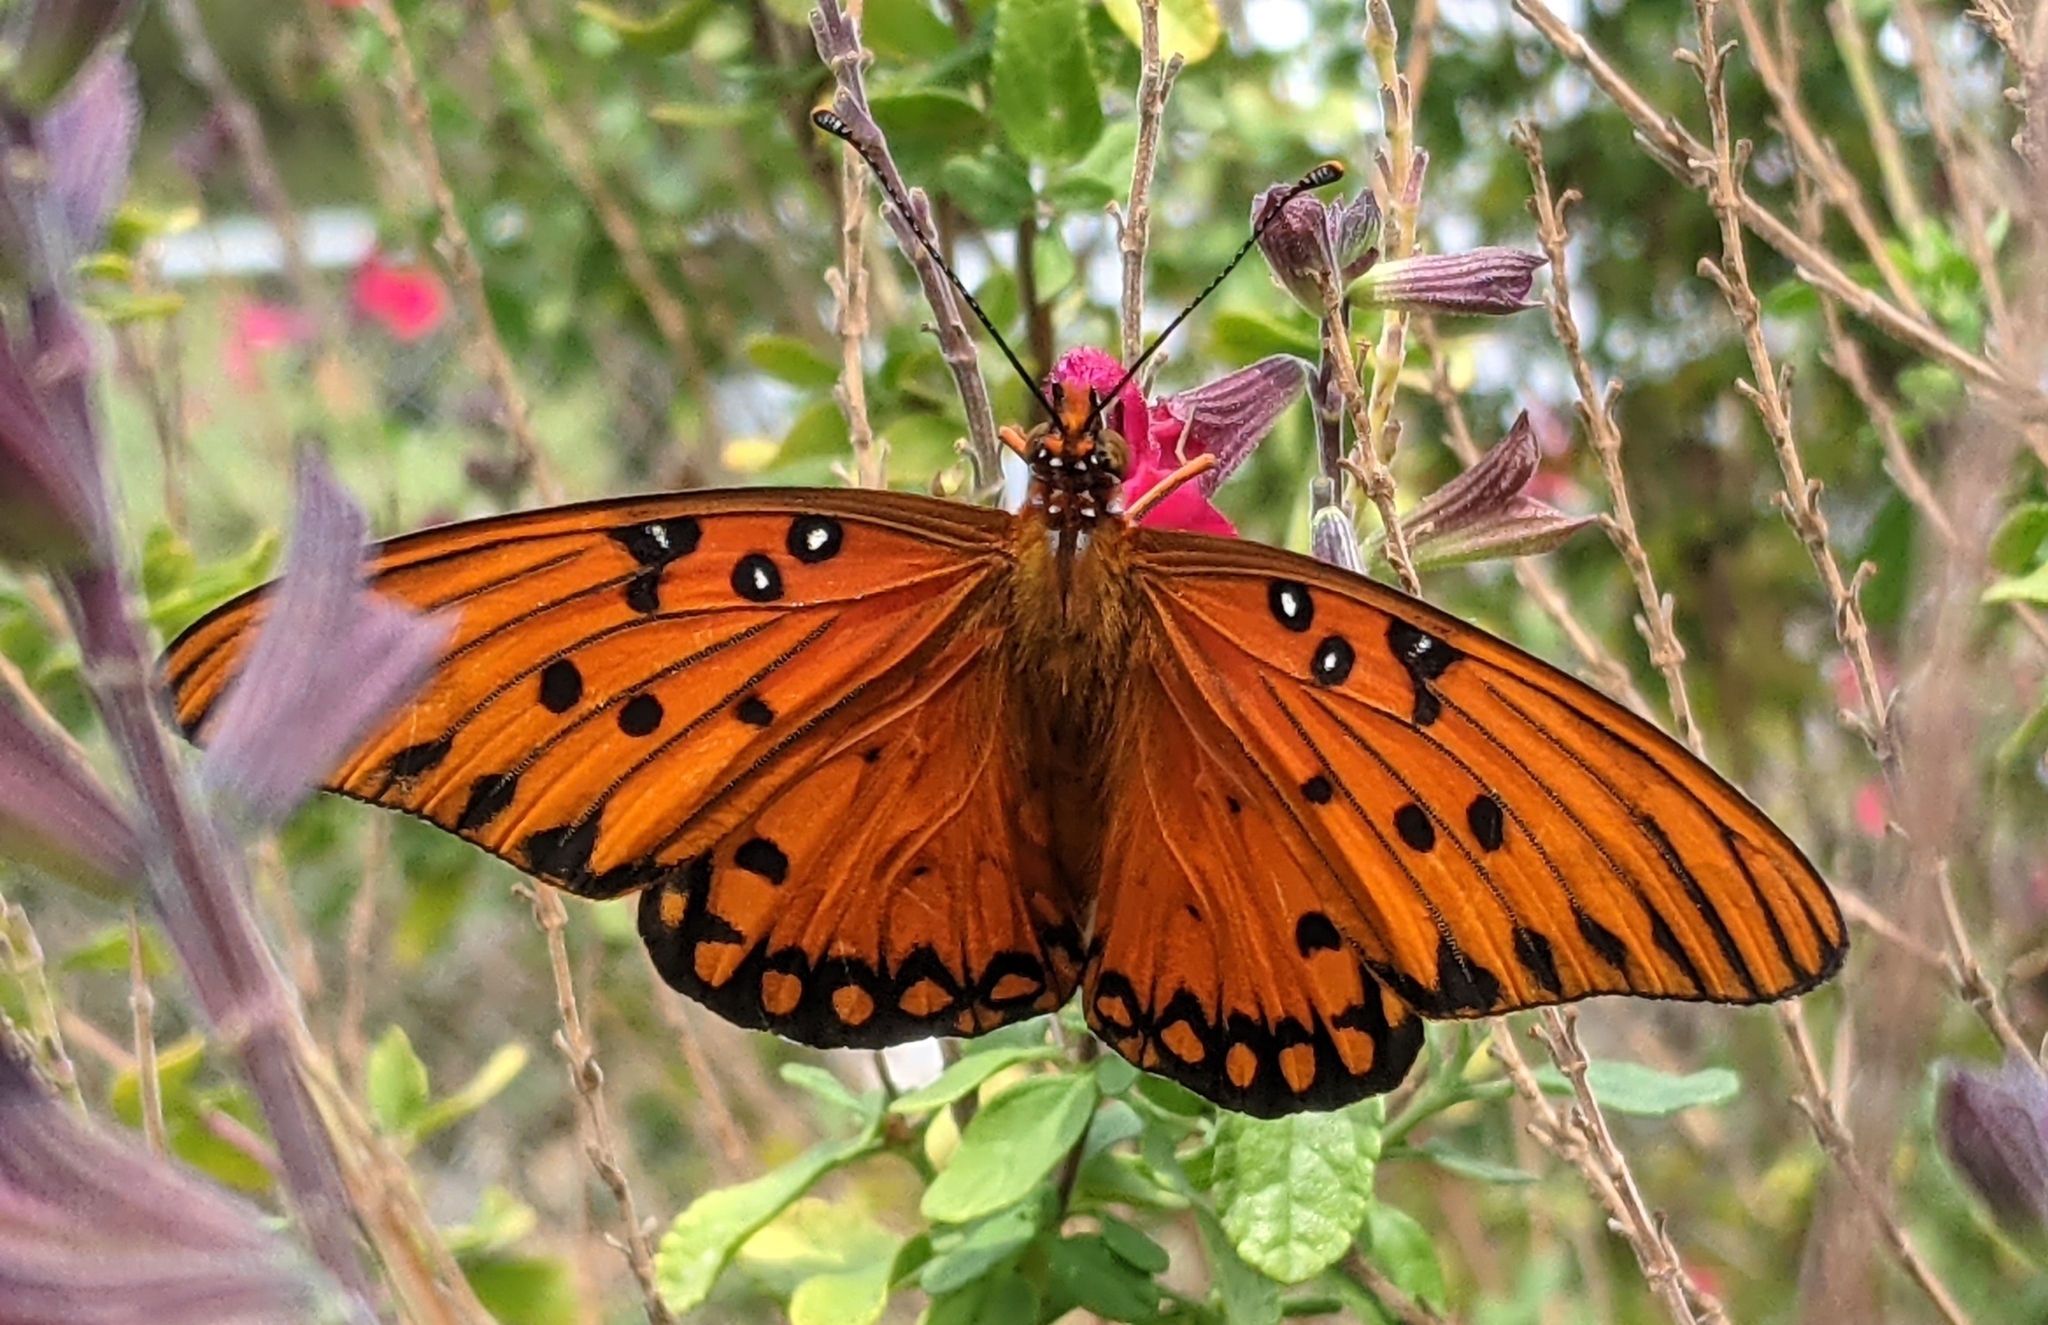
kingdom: Animalia
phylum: Arthropoda
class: Insecta
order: Lepidoptera
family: Nymphalidae
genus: Dione
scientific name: Dione vanillae
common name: Gulf fritillary
